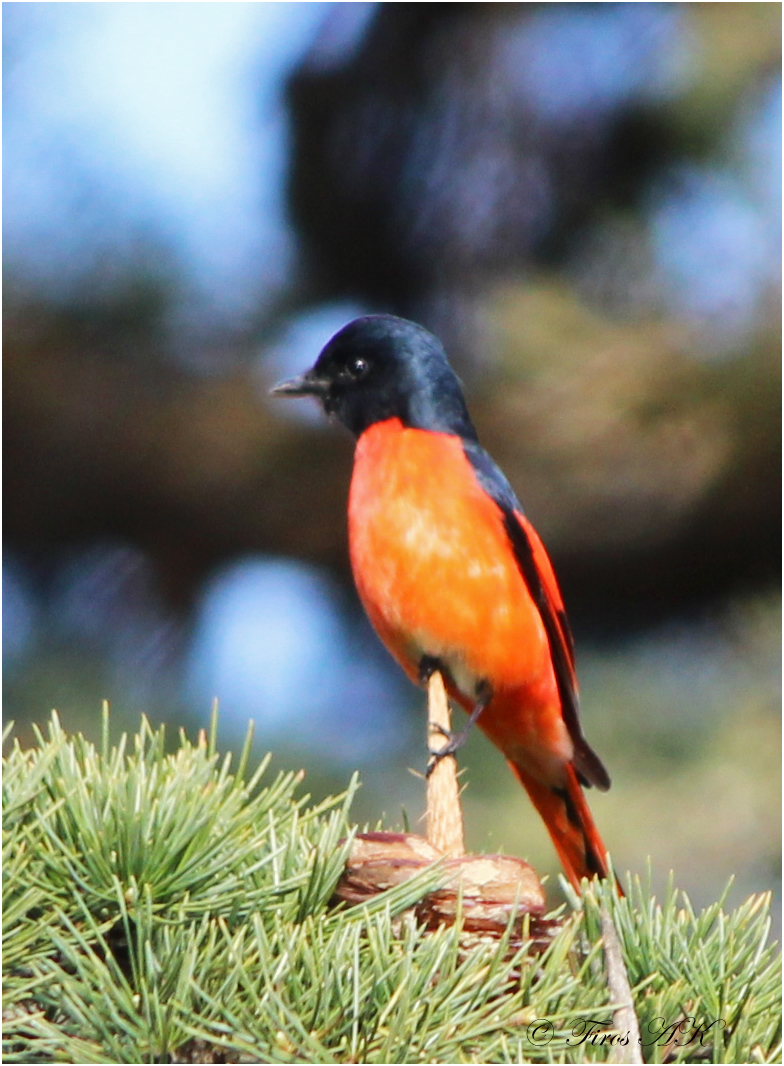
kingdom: Animalia
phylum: Chordata
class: Aves
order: Passeriformes
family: Campephagidae
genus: Pericrocotus
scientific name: Pericrocotus speciosus
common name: Scarlet minivet
